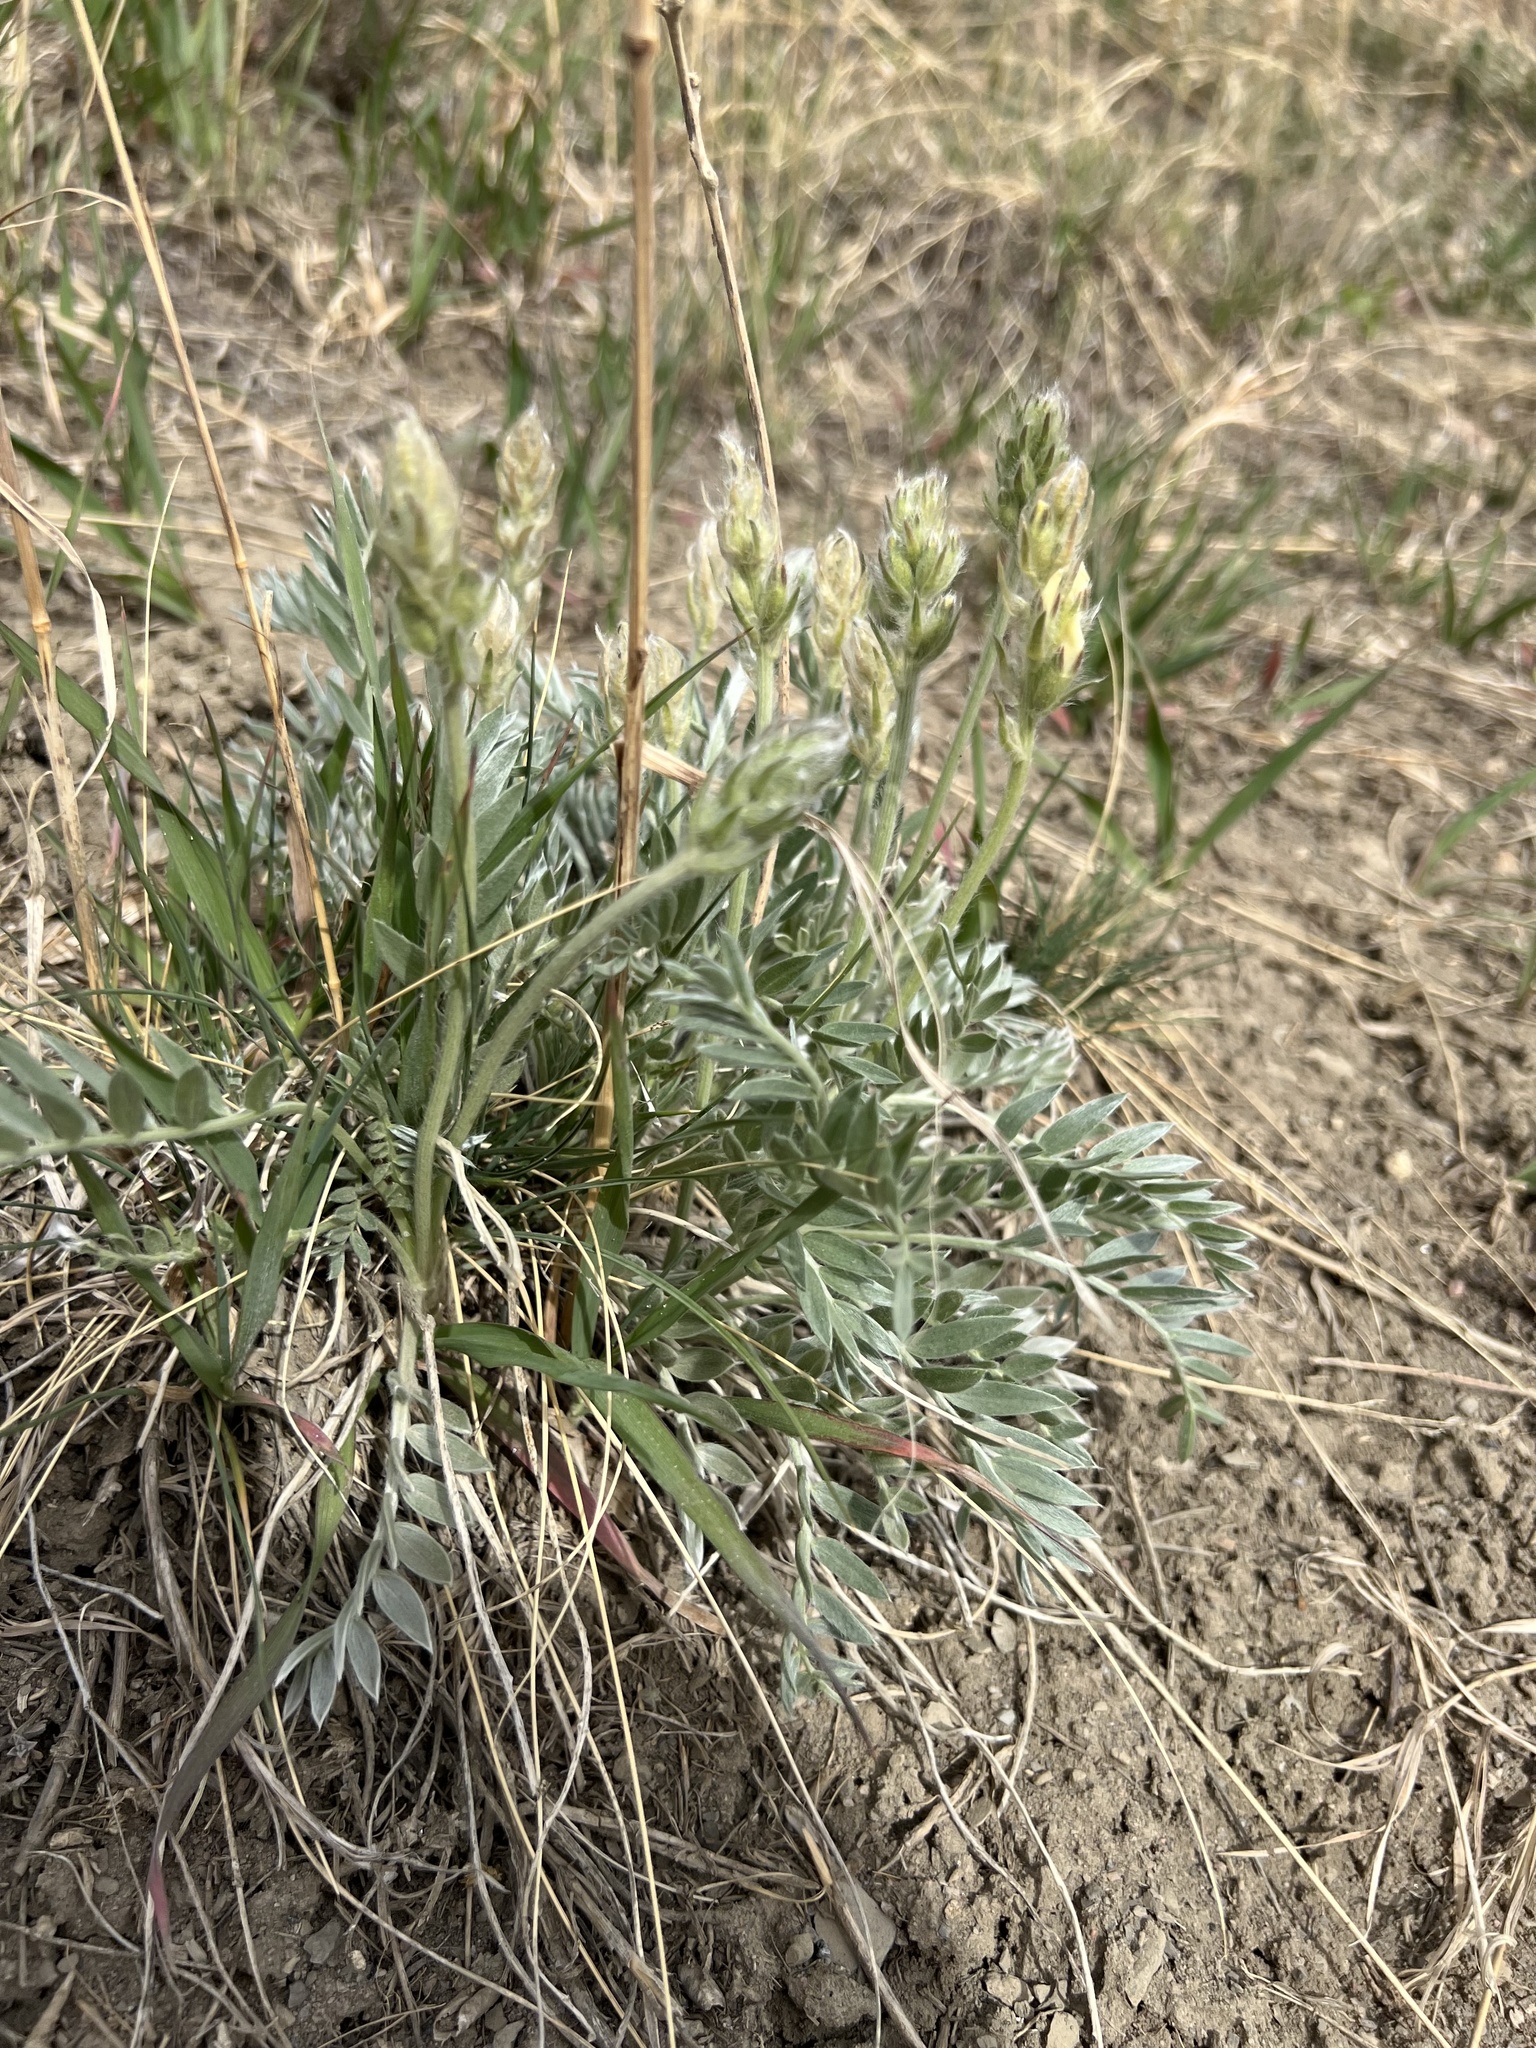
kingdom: Plantae
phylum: Tracheophyta
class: Magnoliopsida
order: Fabales
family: Fabaceae
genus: Oxytropis
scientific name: Oxytropis sericea
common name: Silky locoweed
